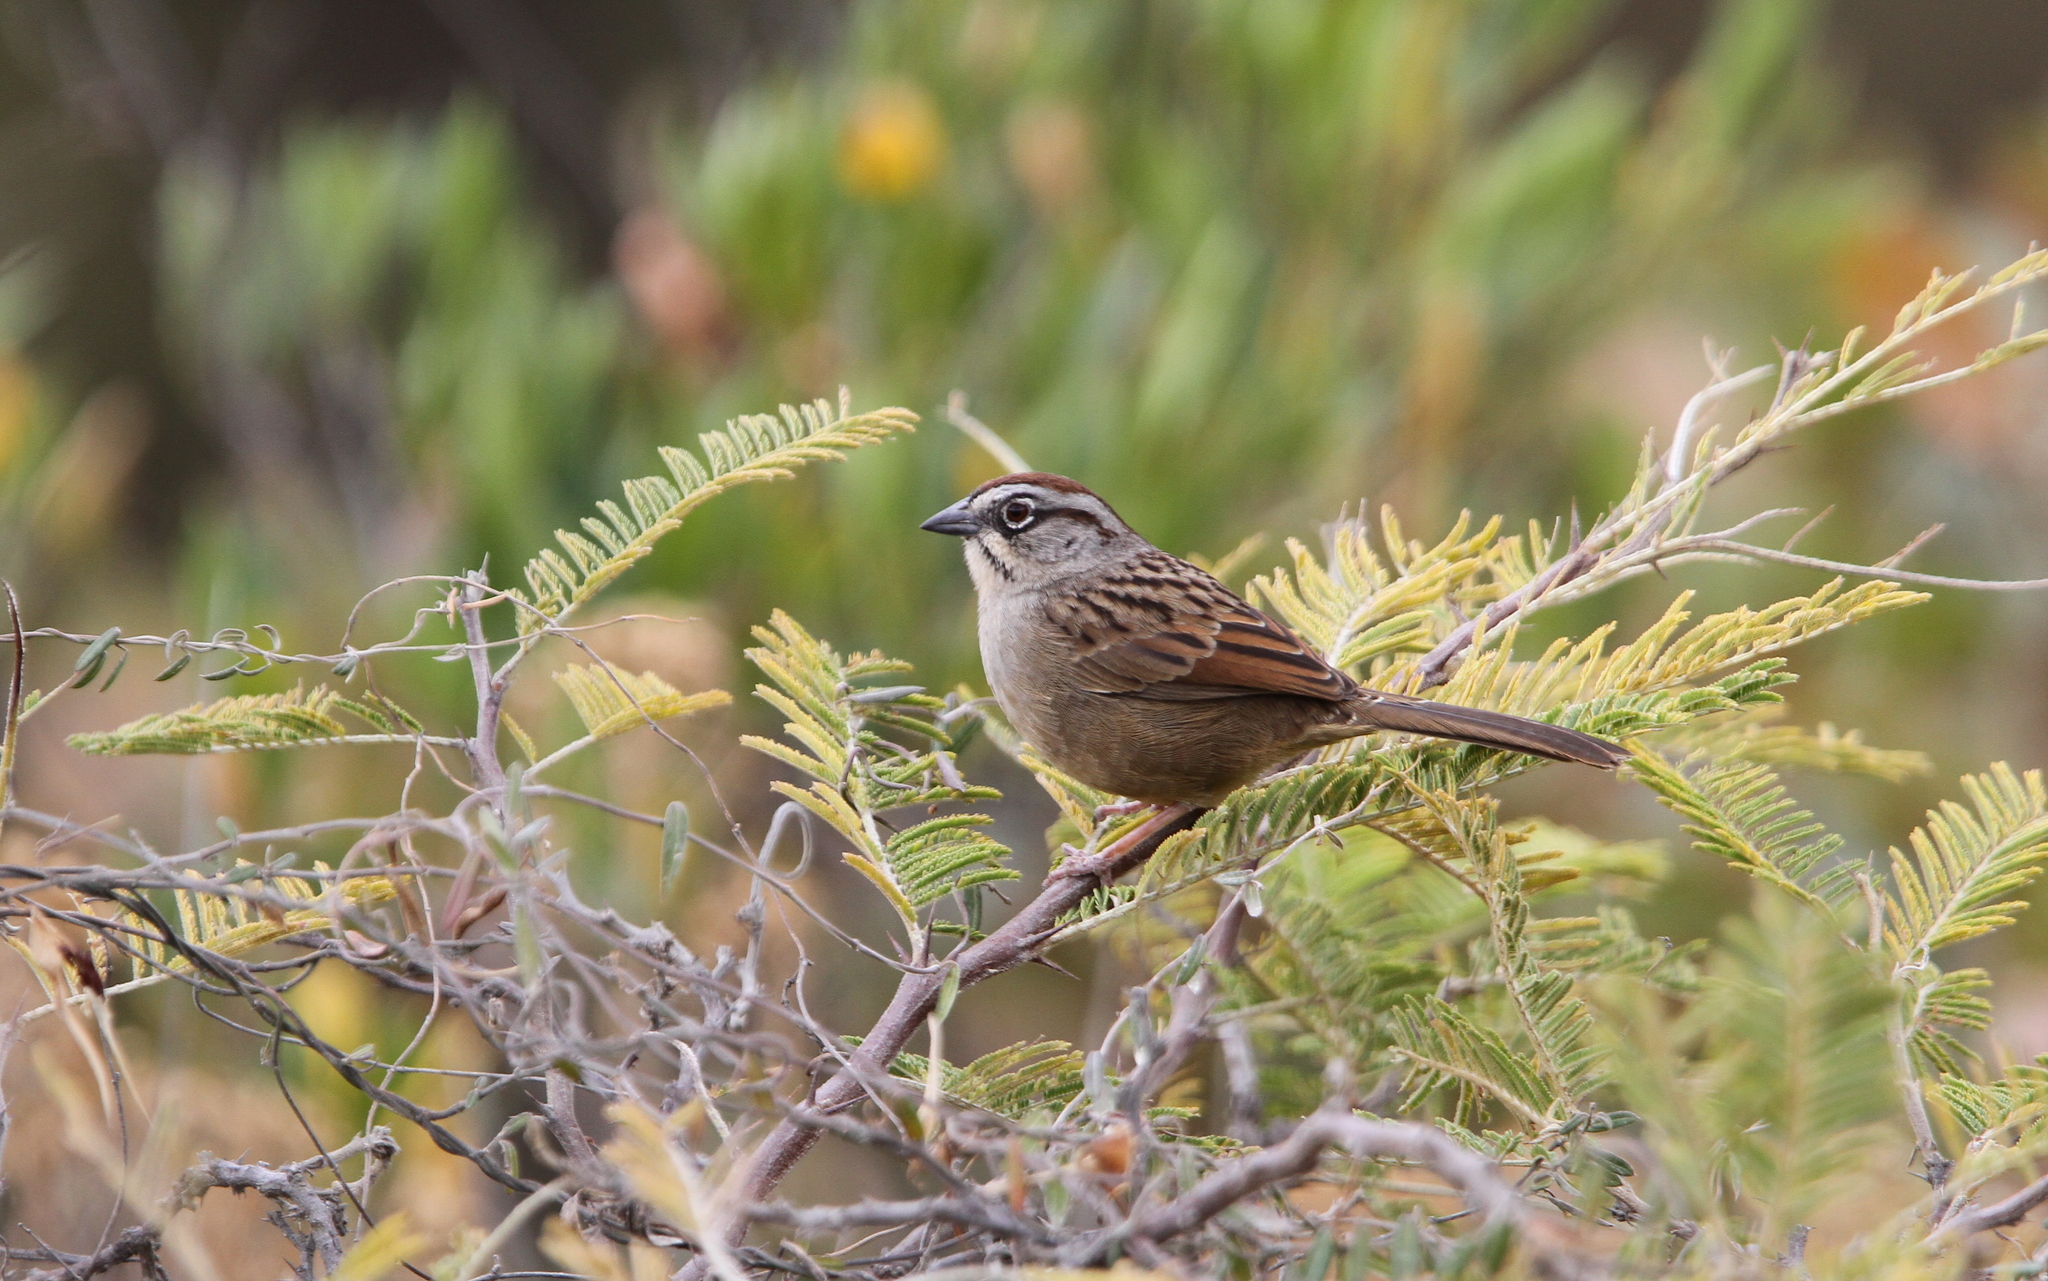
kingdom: Animalia
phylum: Chordata
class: Aves
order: Passeriformes
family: Passerellidae
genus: Aimophila
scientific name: Aimophila notosticta
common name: Oaxaca sparrow
